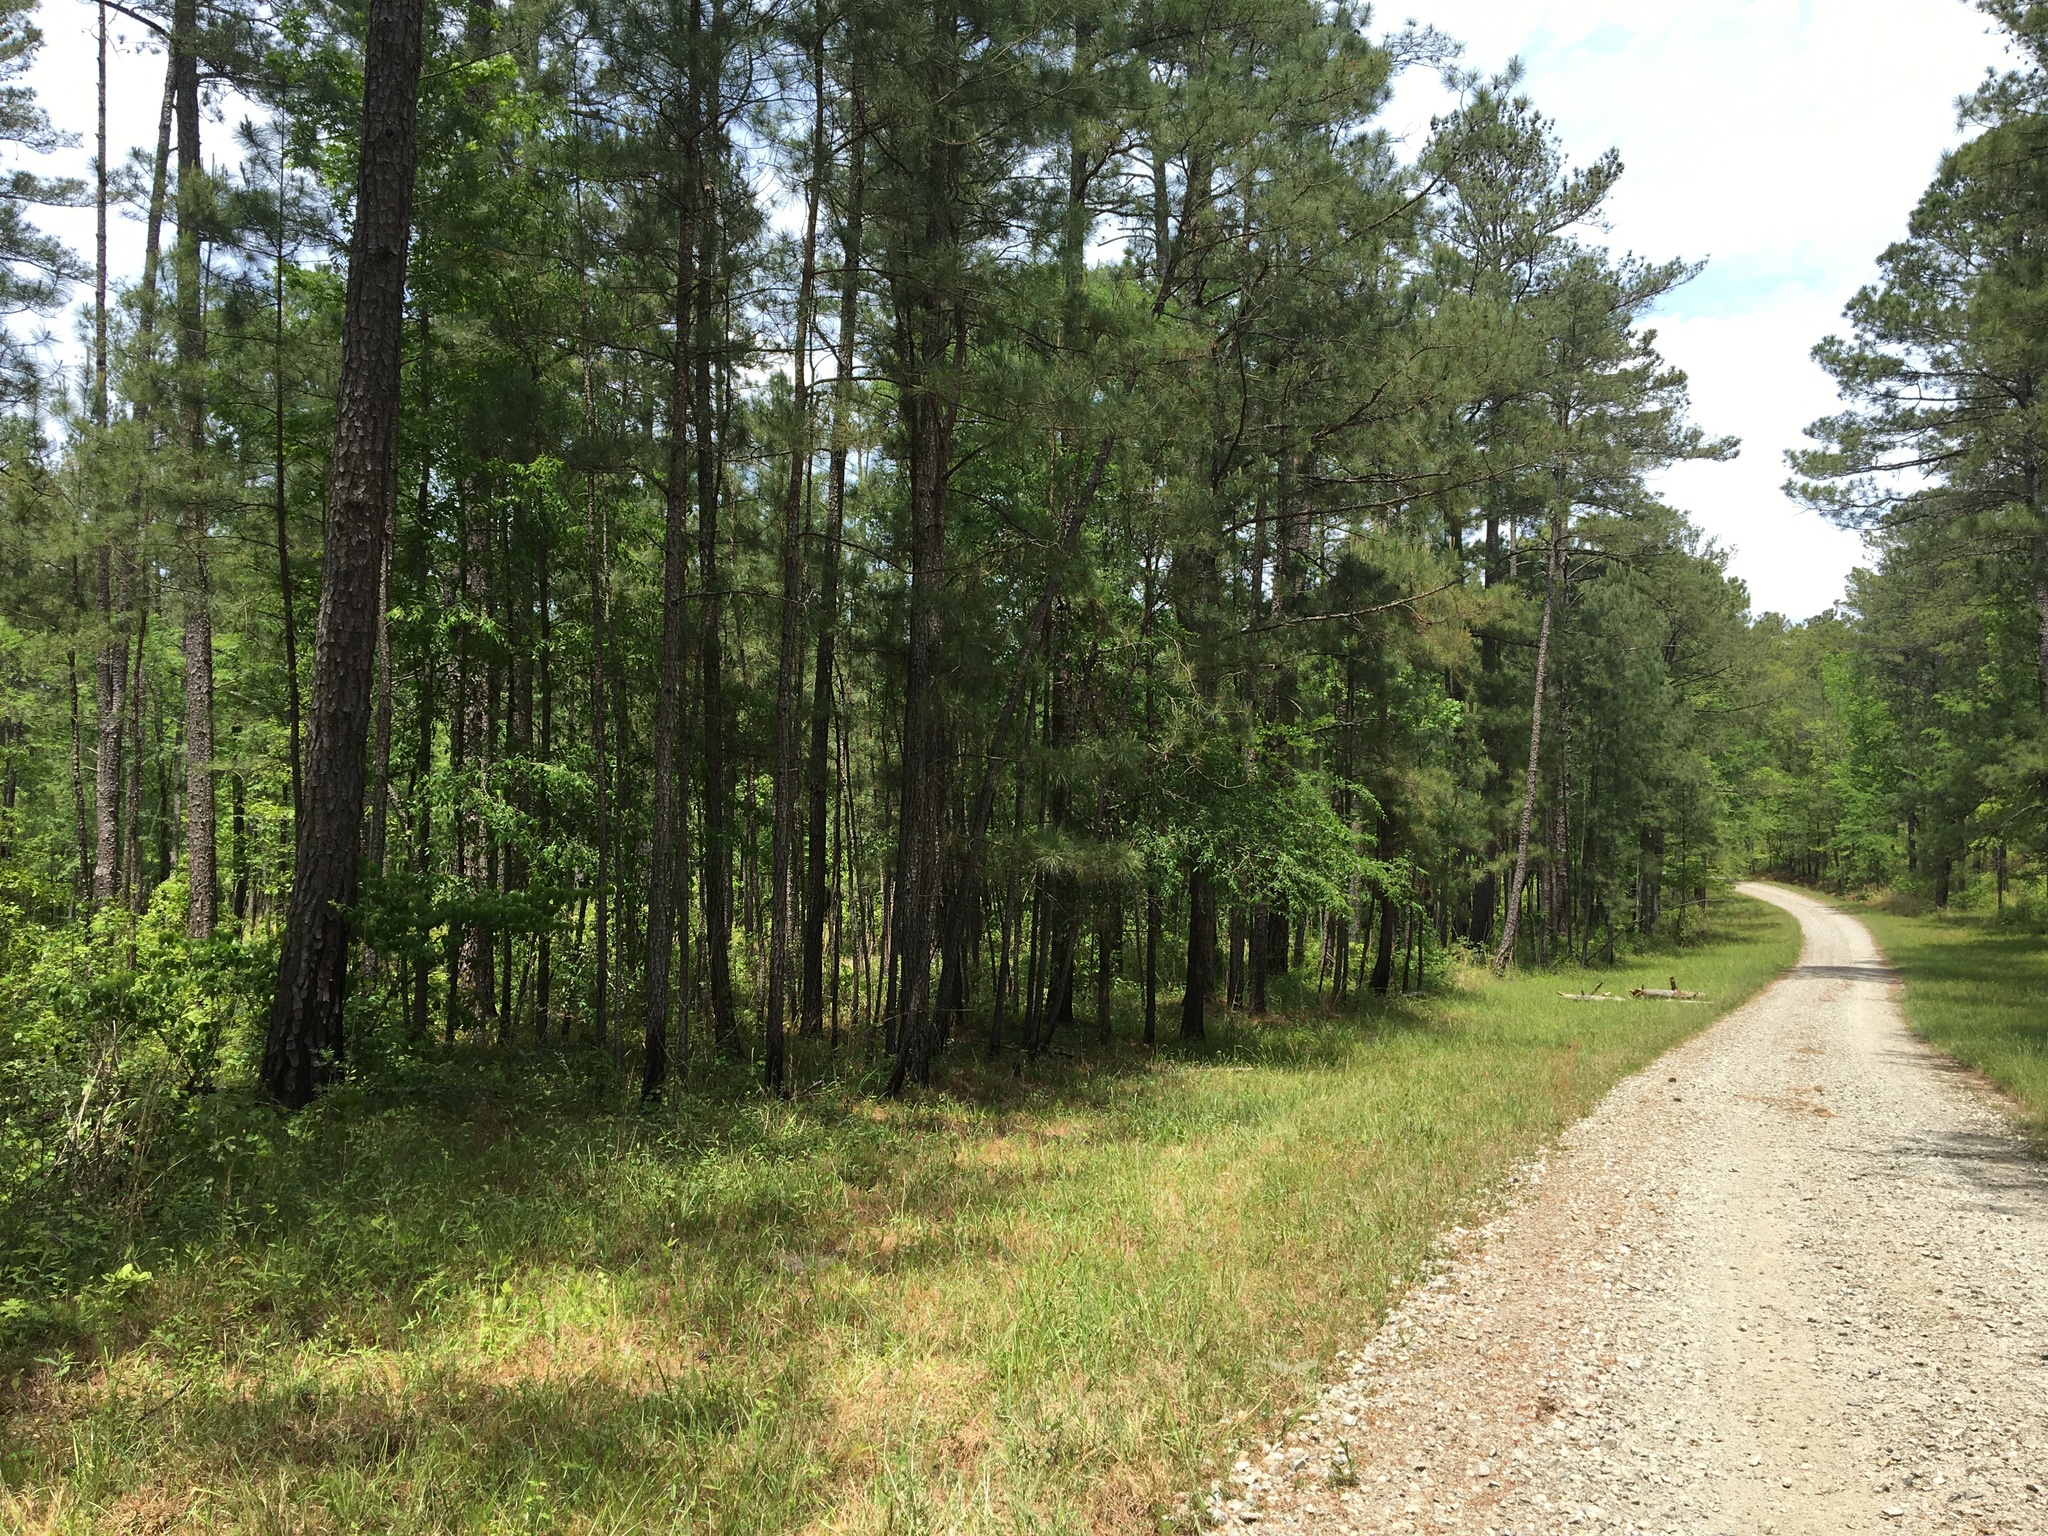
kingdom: Animalia
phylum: Chordata
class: Aves
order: Galliformes
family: Odontophoridae
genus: Colinus
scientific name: Colinus virginianus
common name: Northern bobwhite
